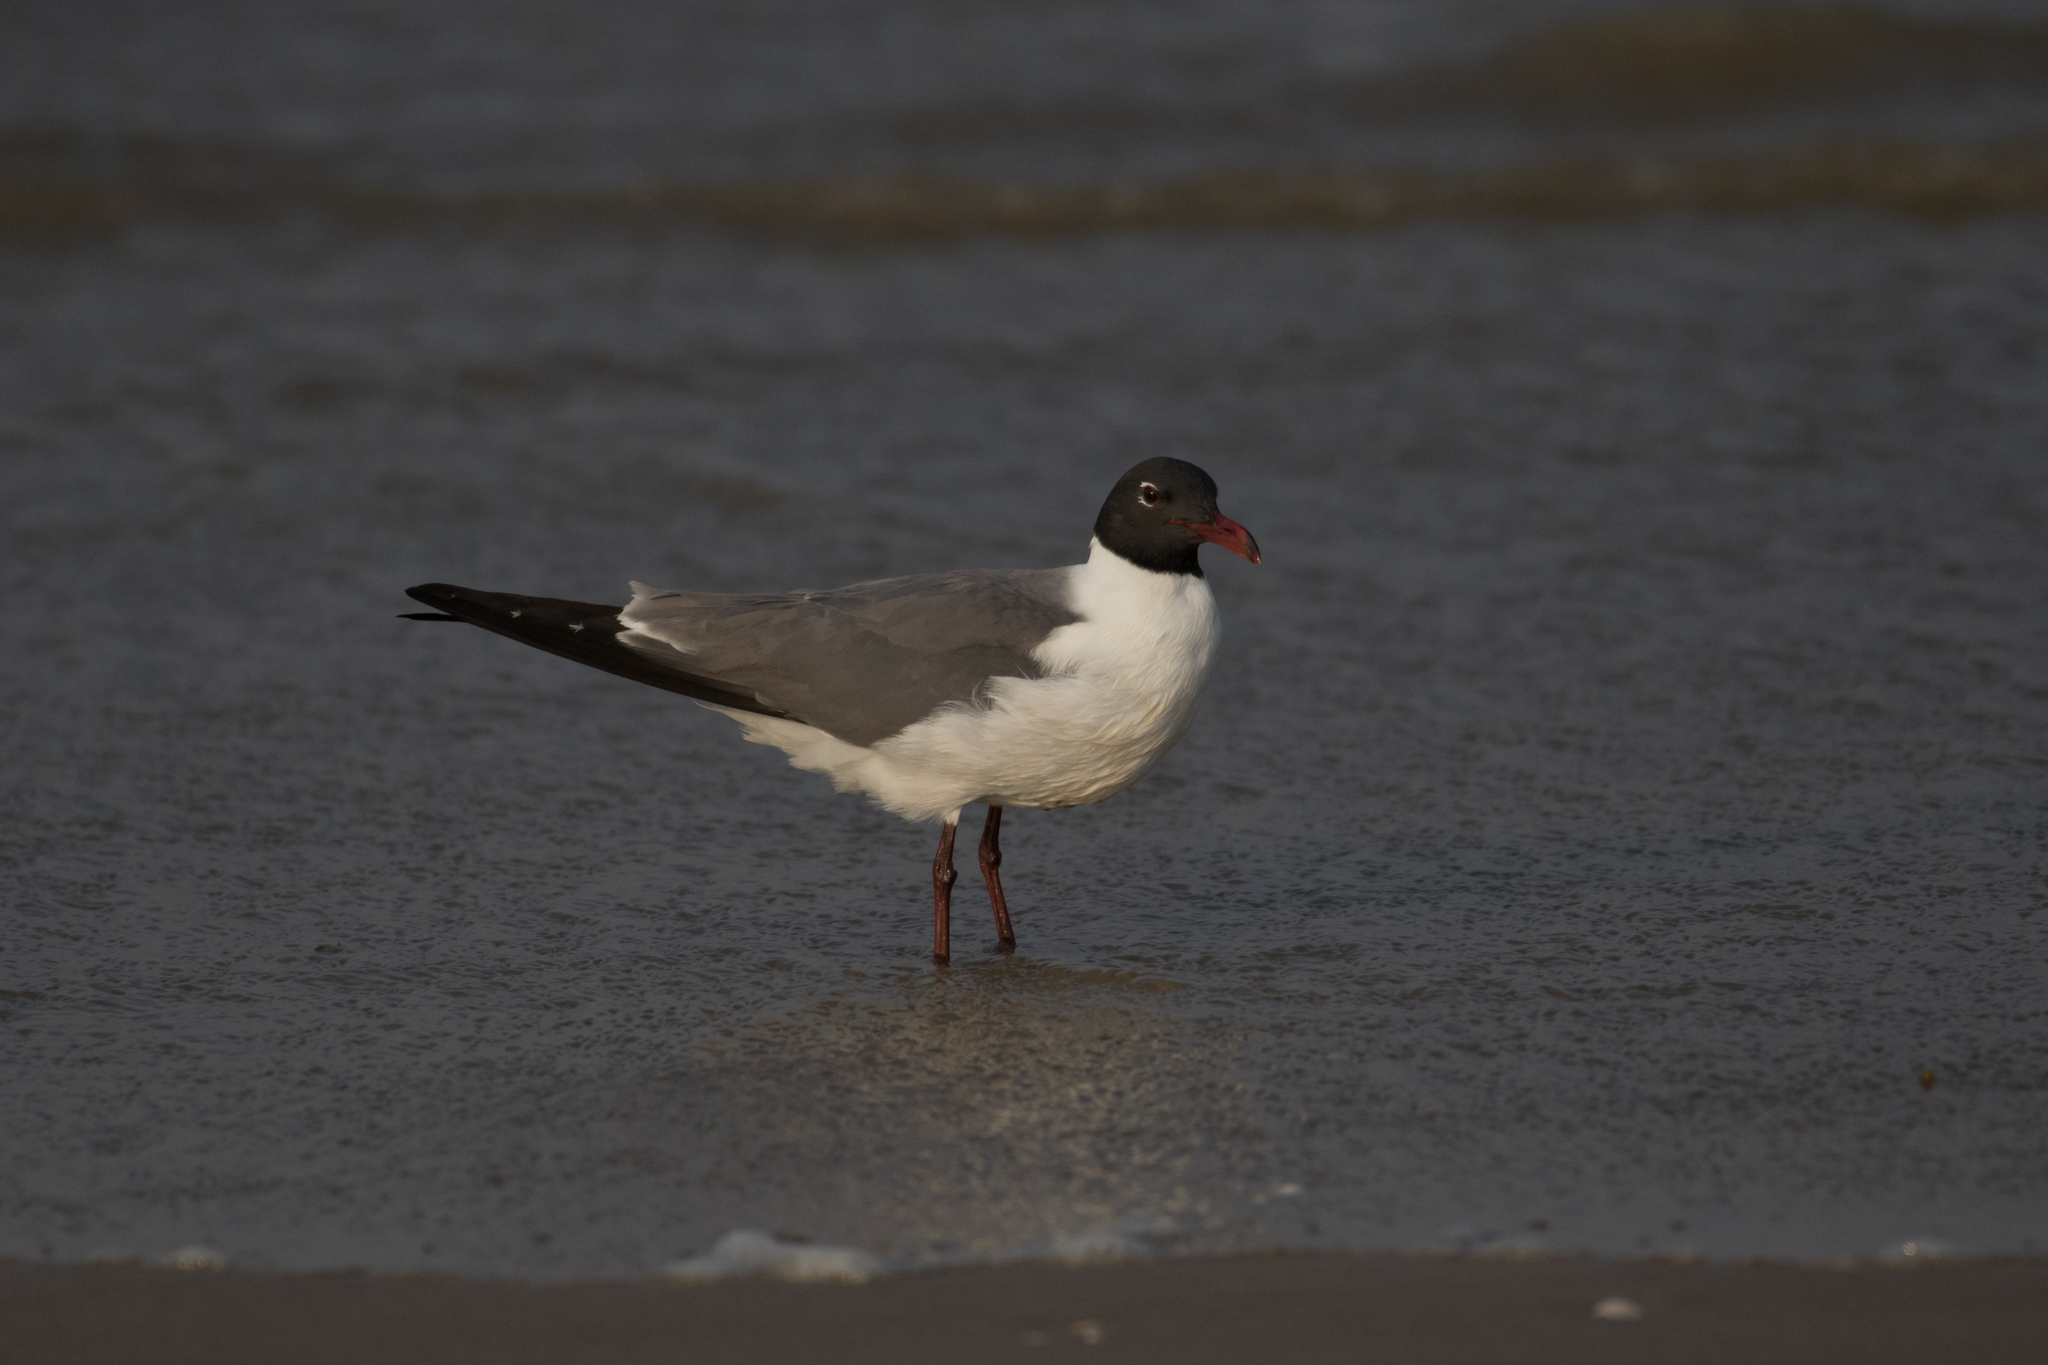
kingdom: Animalia
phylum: Chordata
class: Aves
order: Charadriiformes
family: Laridae
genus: Leucophaeus
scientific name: Leucophaeus atricilla
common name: Laughing gull
